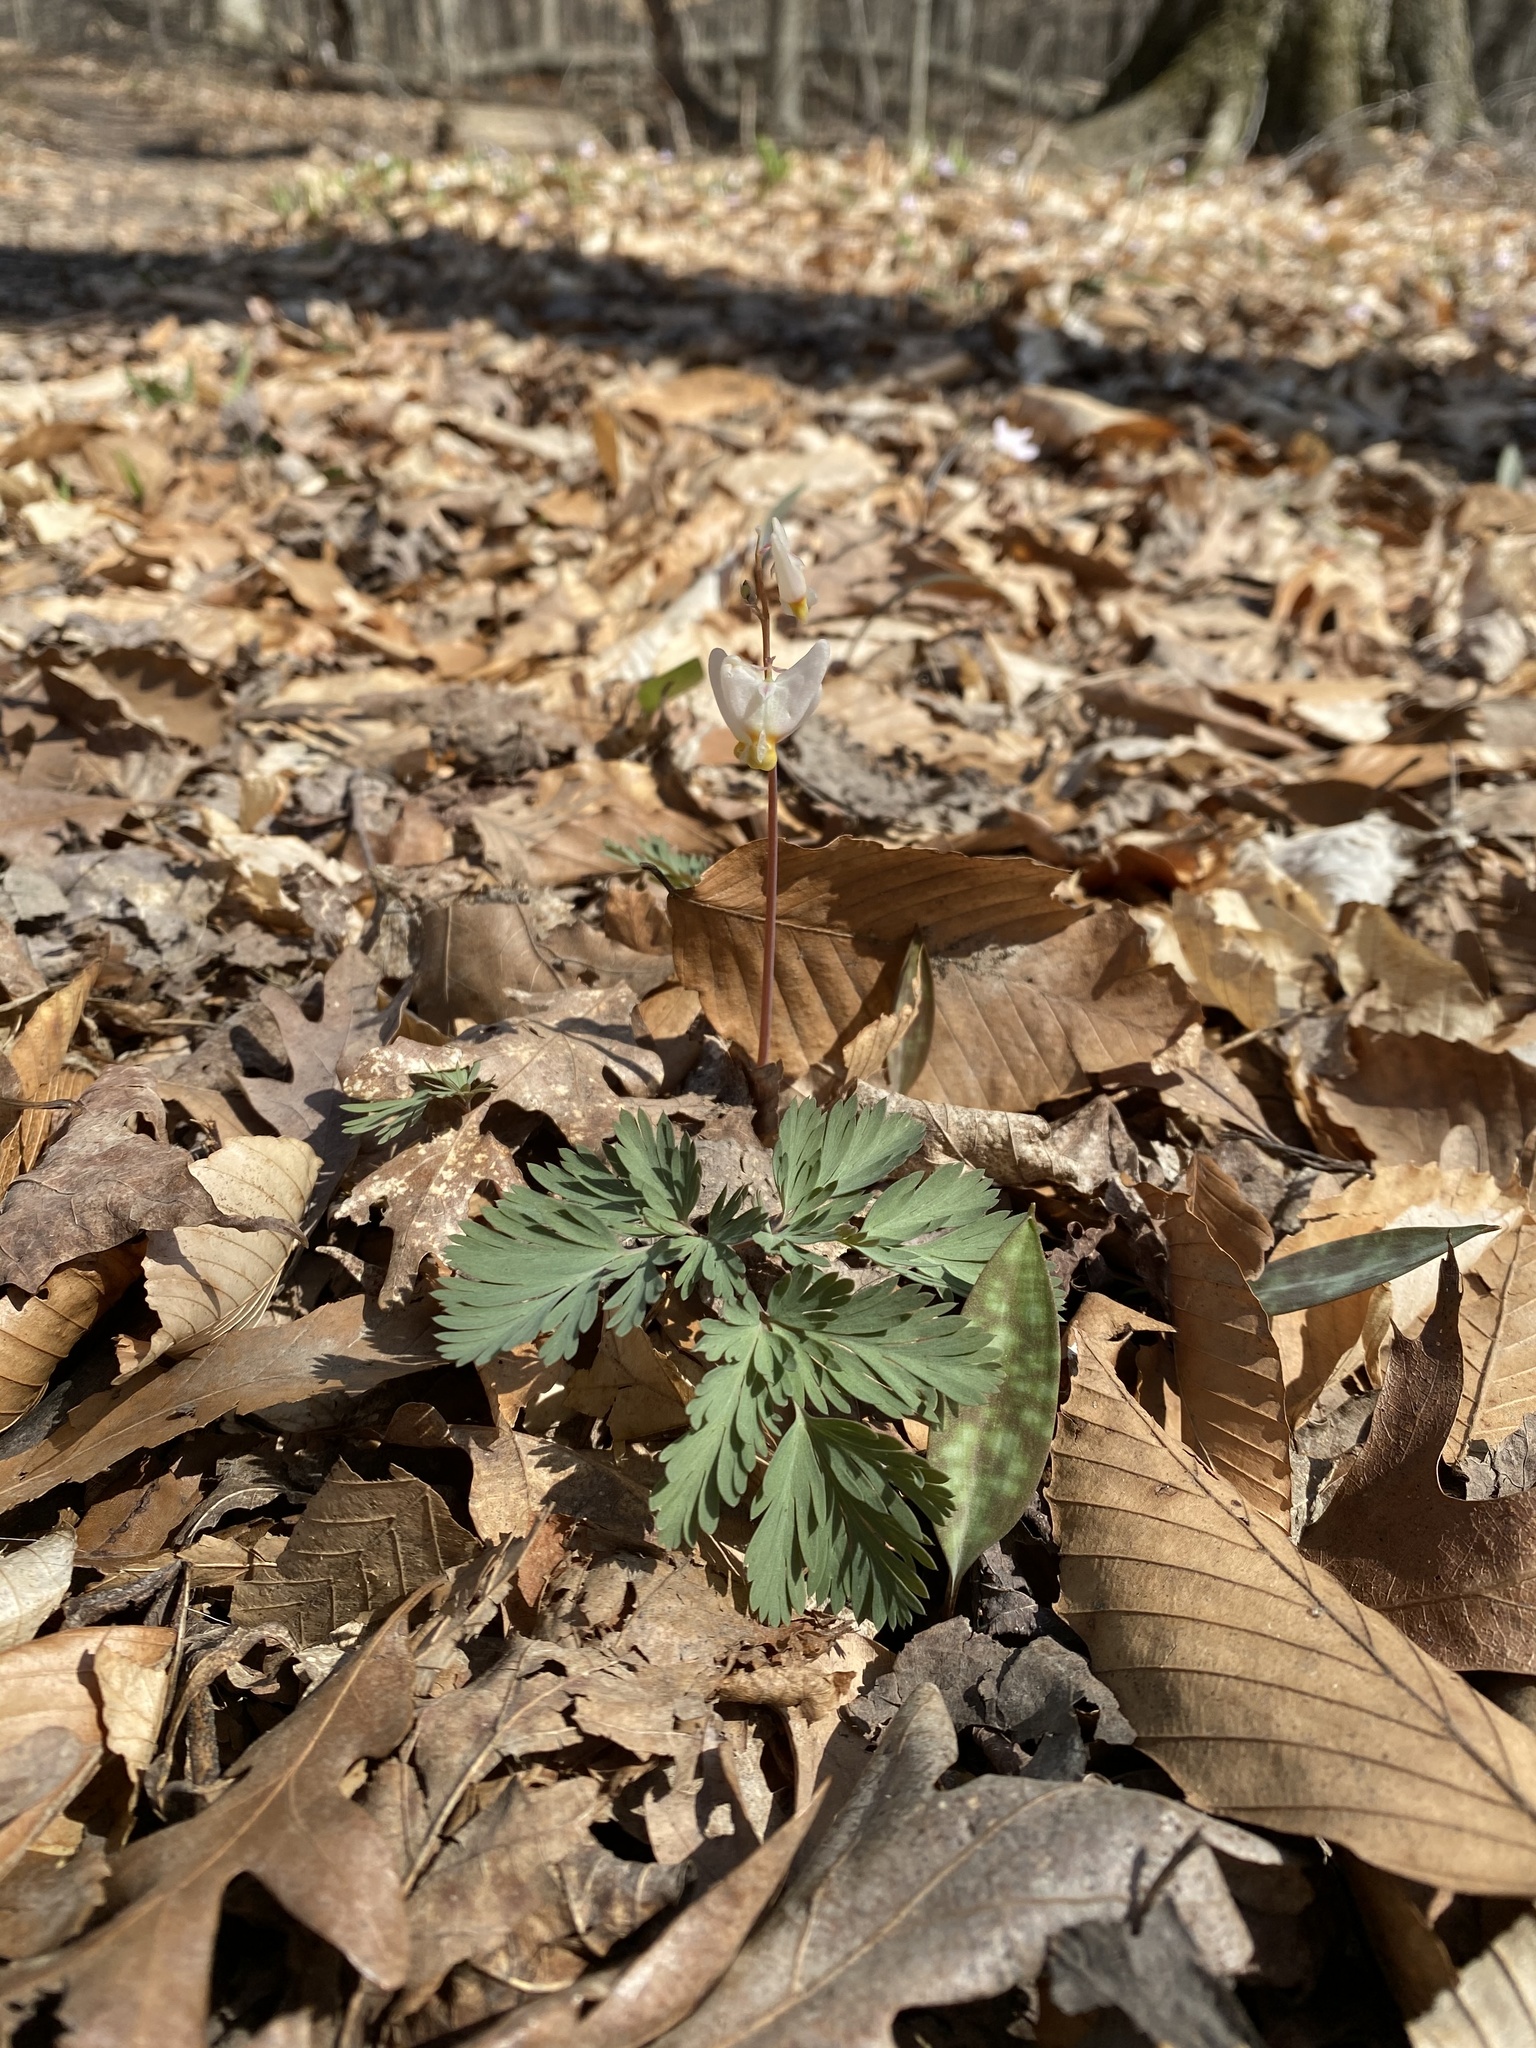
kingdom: Plantae
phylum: Tracheophyta
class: Magnoliopsida
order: Ranunculales
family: Papaveraceae
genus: Dicentra
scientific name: Dicentra cucullaria
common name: Dutchman's breeches
